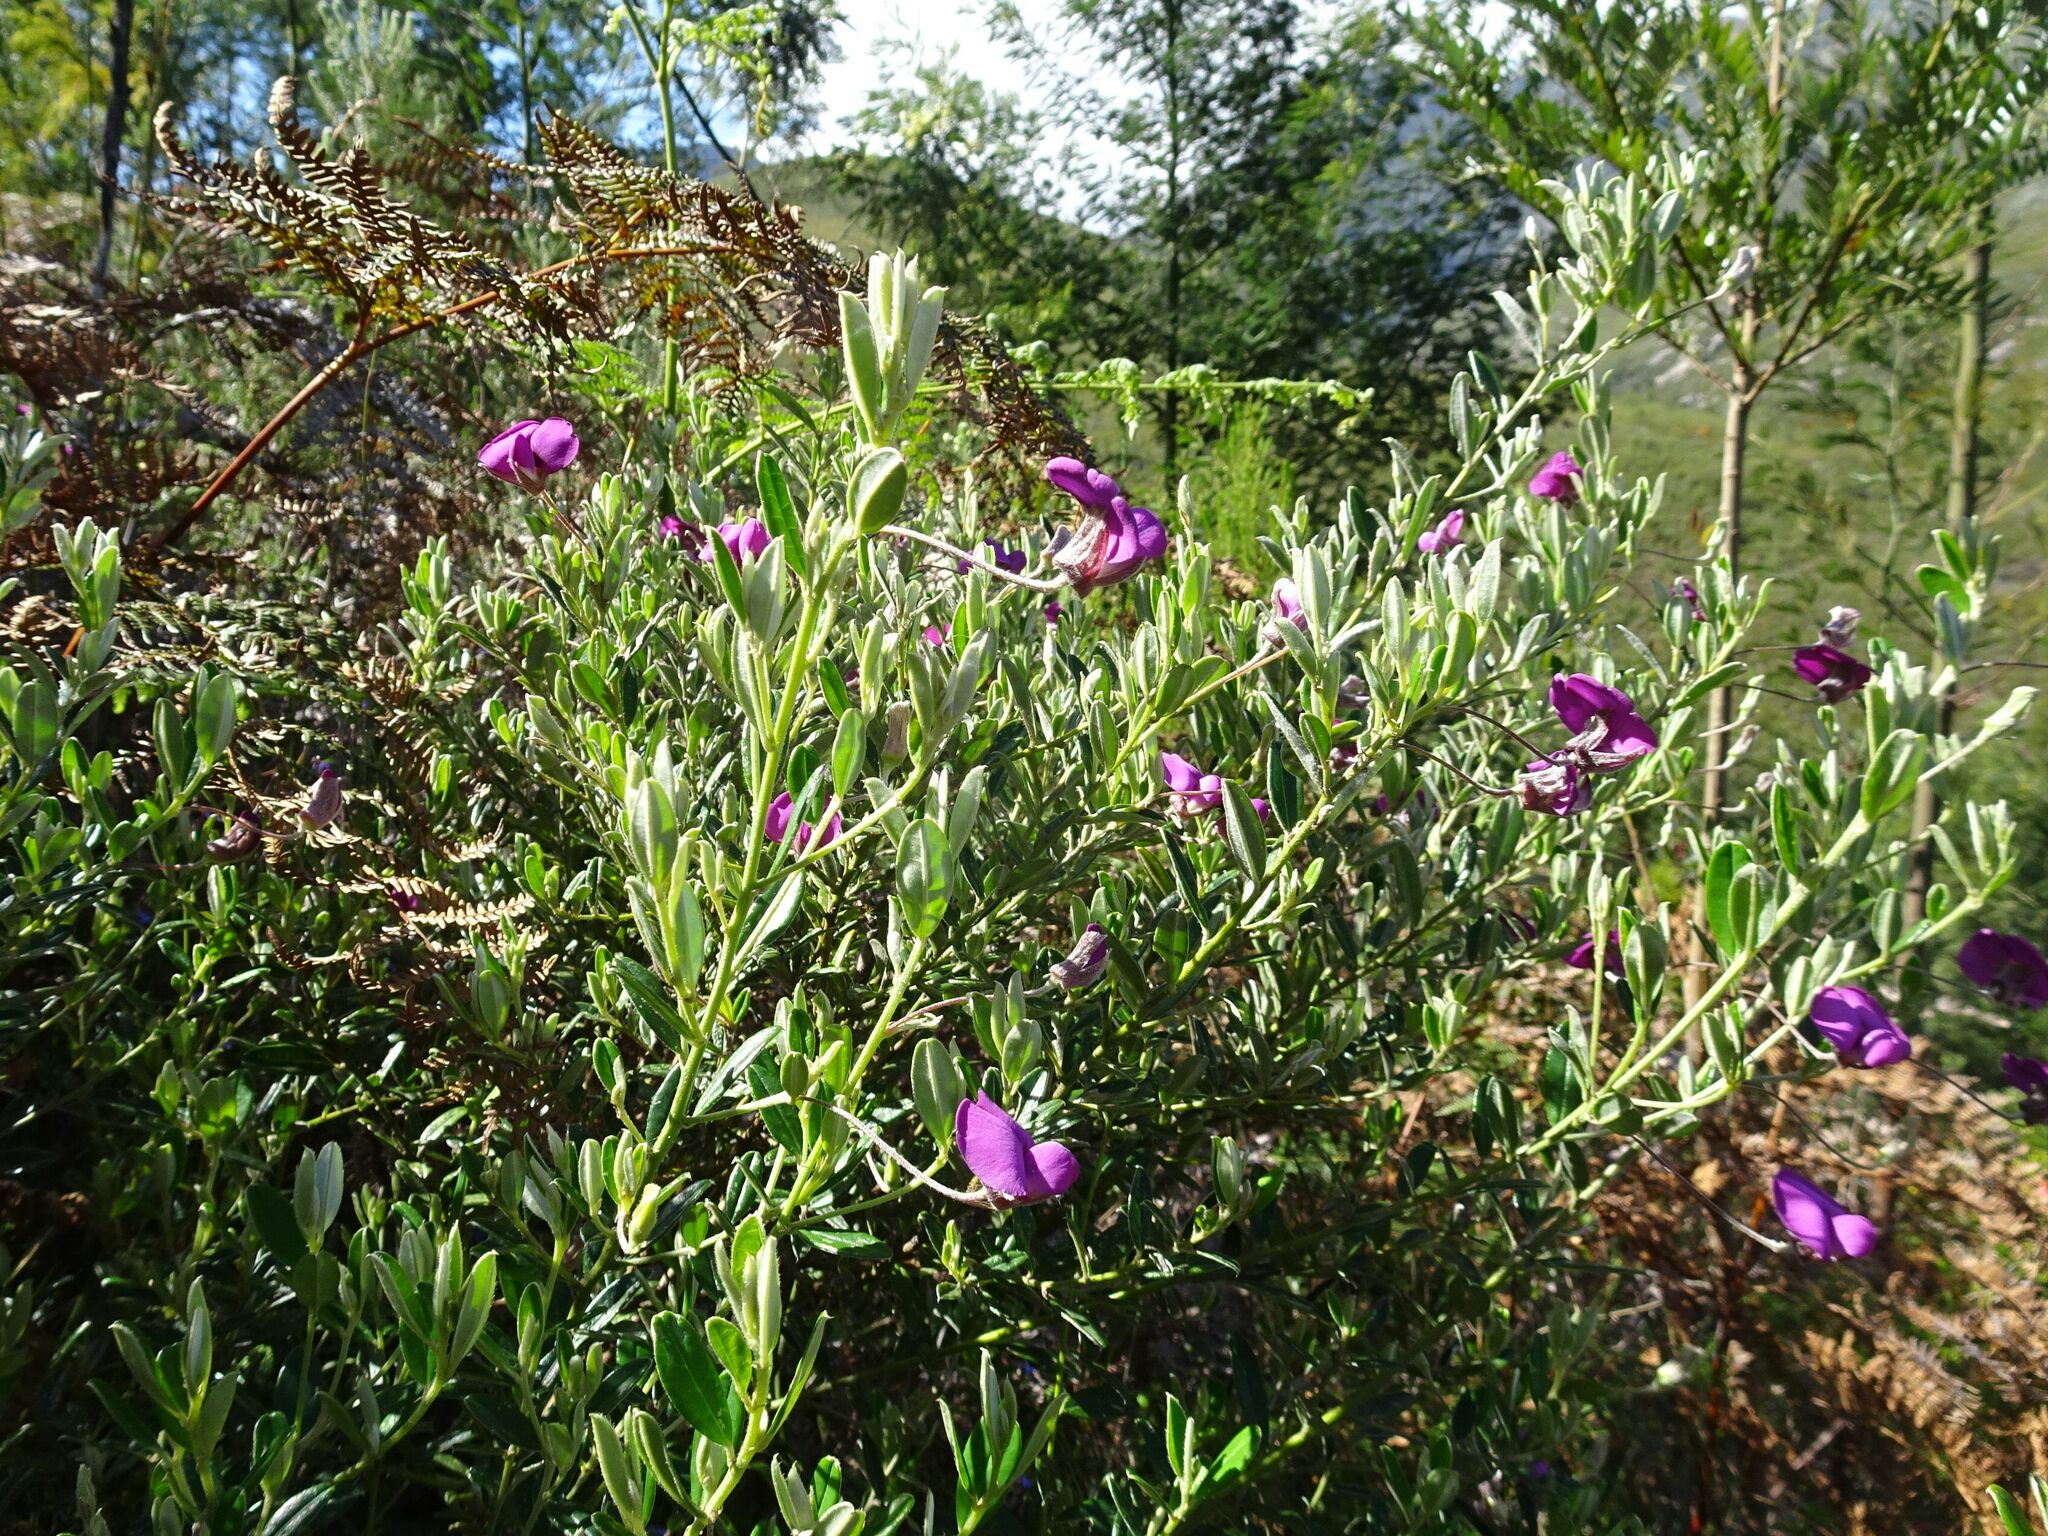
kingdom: Plantae
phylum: Tracheophyta
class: Magnoliopsida
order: Fabales
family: Fabaceae
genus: Podalyria
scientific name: Podalyria buxifolia
